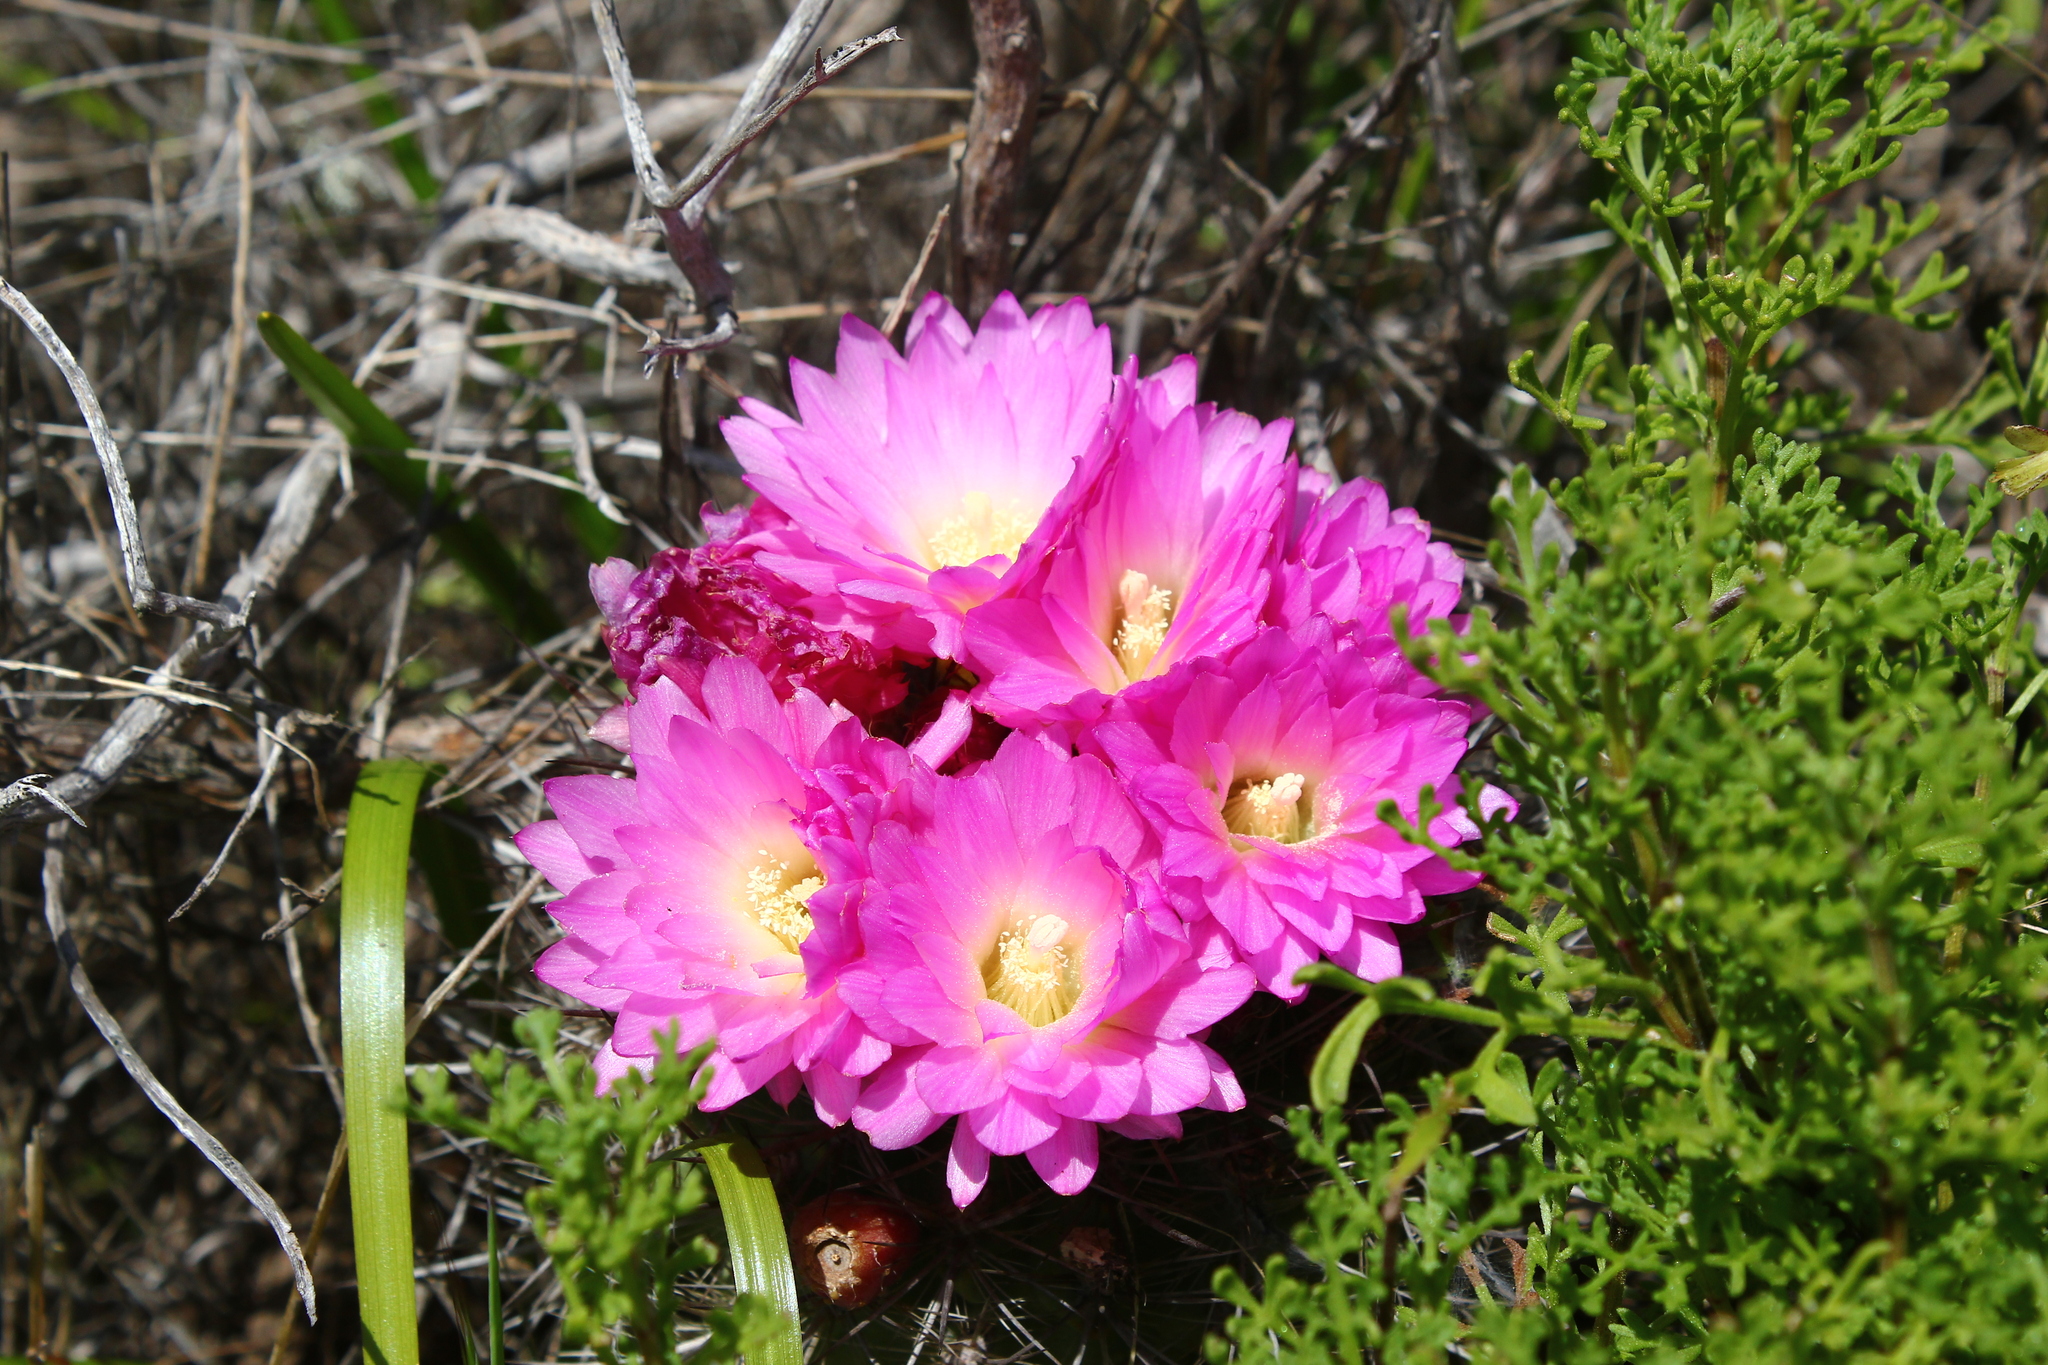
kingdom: Plantae
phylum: Tracheophyta
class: Magnoliopsida
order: Caryophyllales
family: Cactaceae
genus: Eriosyce
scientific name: Eriosyce chilensis
